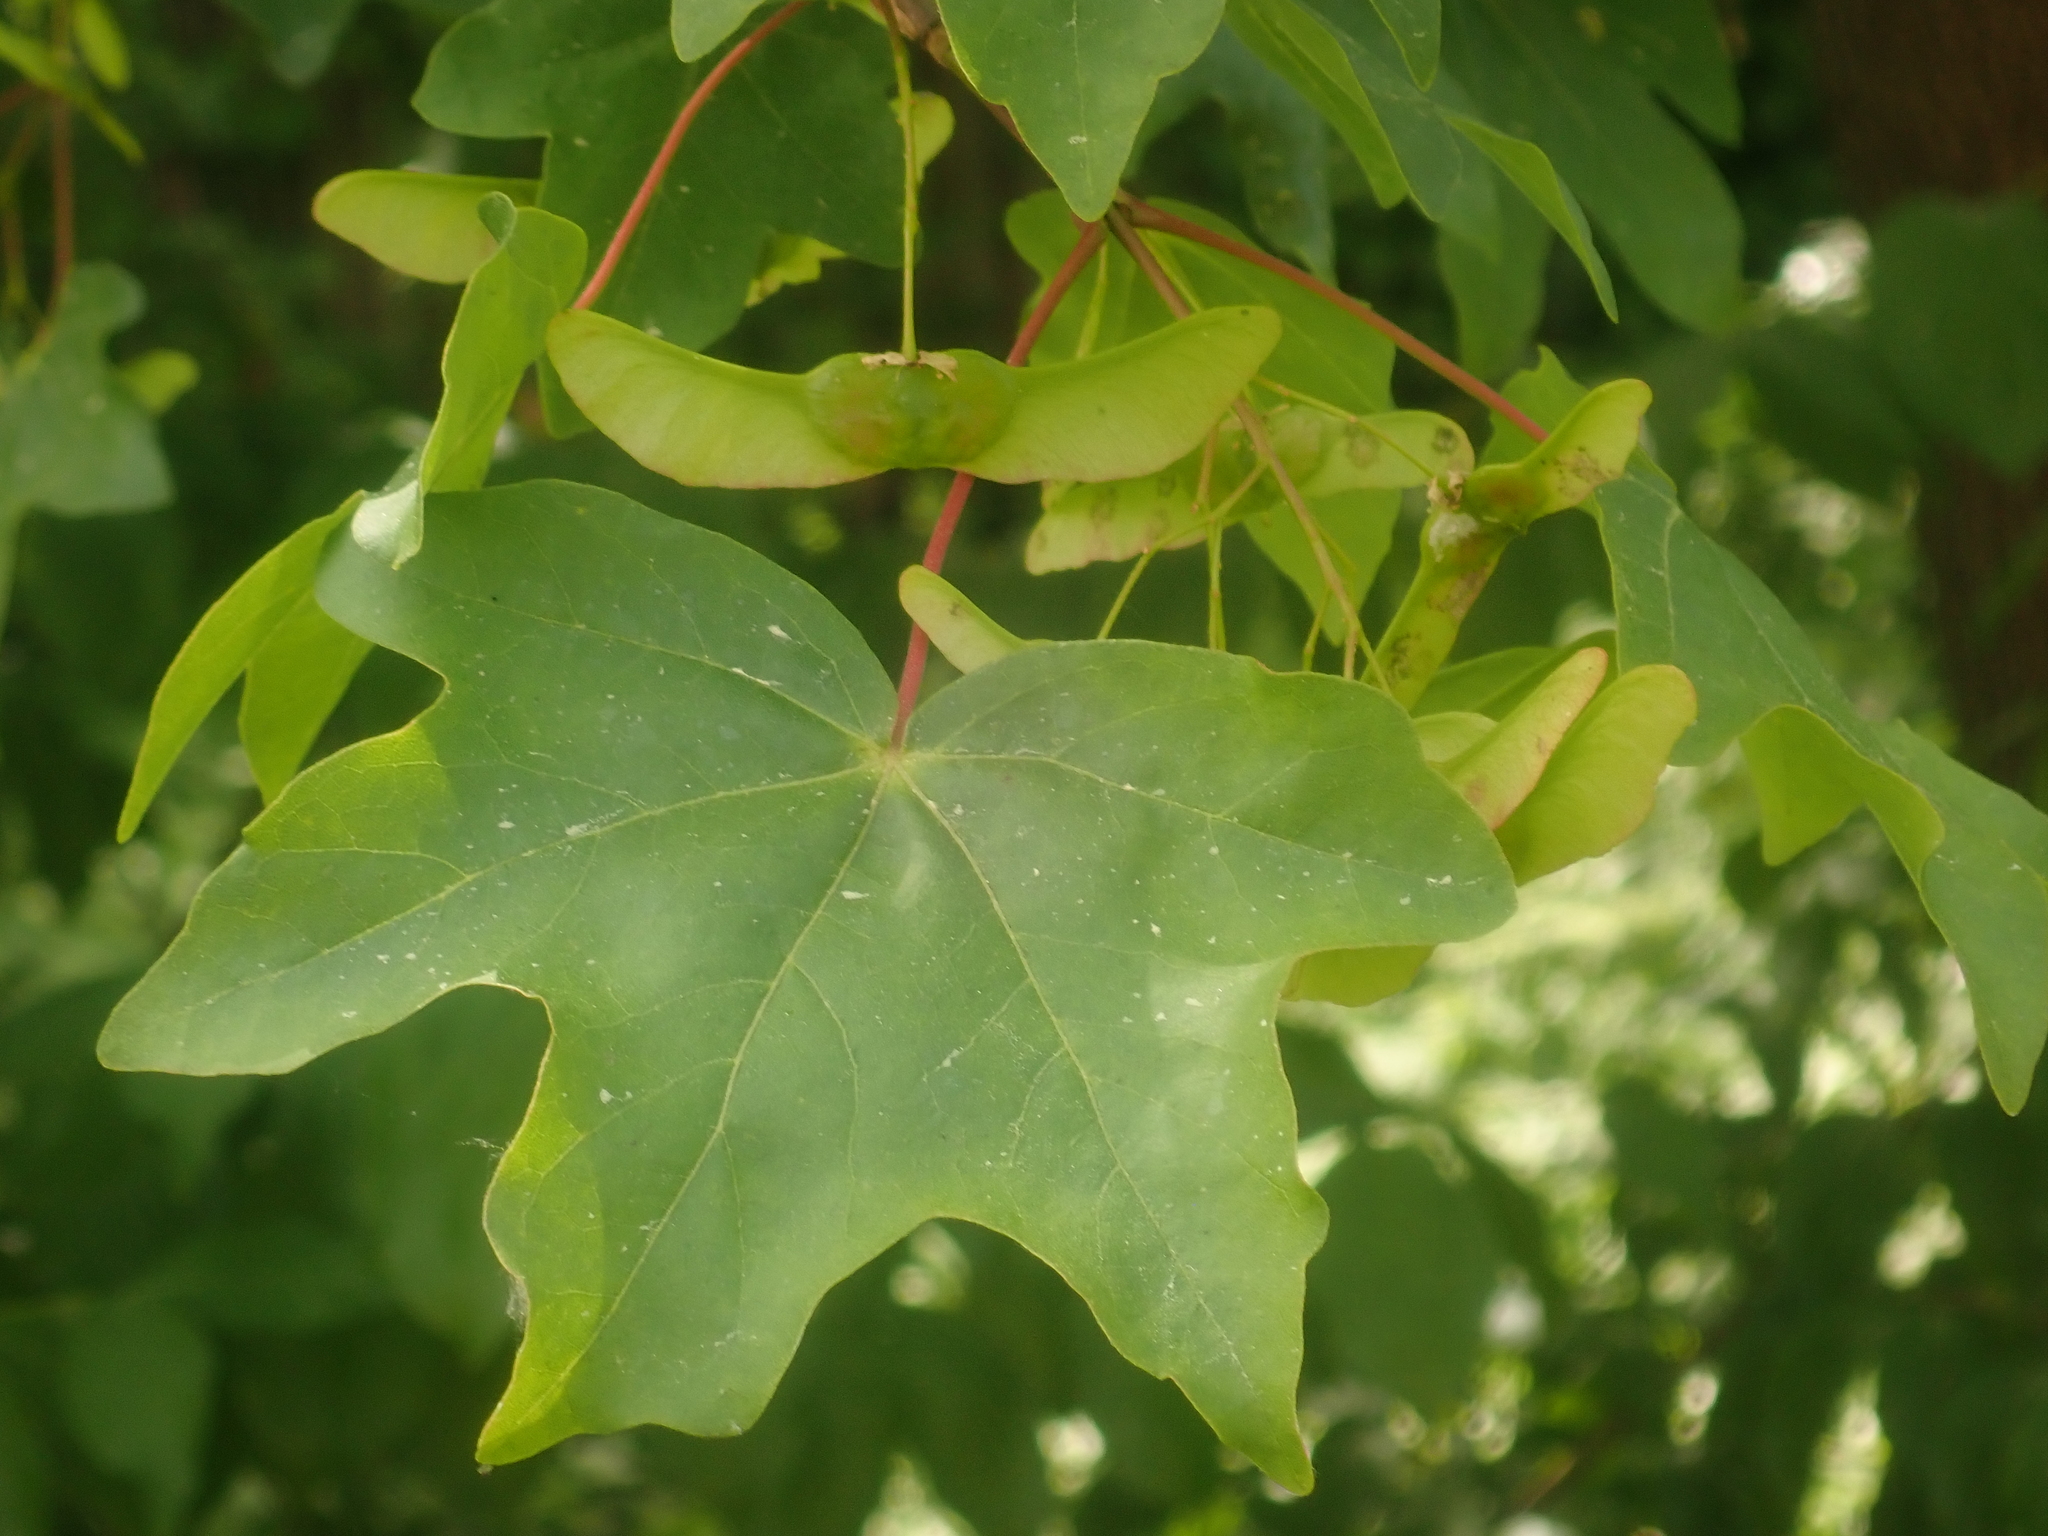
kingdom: Plantae
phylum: Tracheophyta
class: Magnoliopsida
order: Sapindales
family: Sapindaceae
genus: Acer
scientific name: Acer campestre
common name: Field maple
